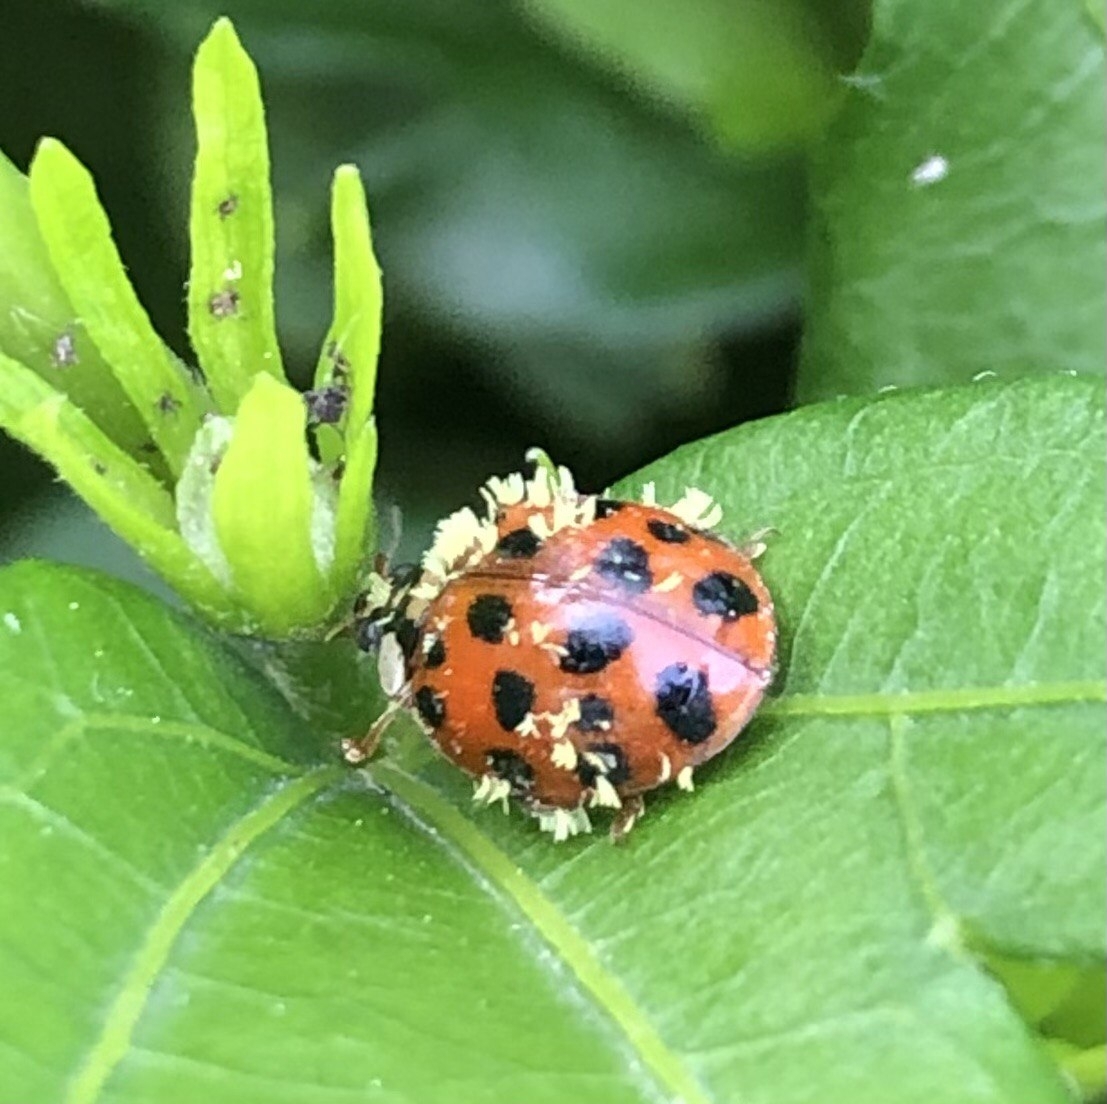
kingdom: Fungi
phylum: Ascomycota
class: Laboulbeniomycetes
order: Laboulbeniales
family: Laboulbeniaceae
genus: Hesperomyces
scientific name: Hesperomyces harmoniae
